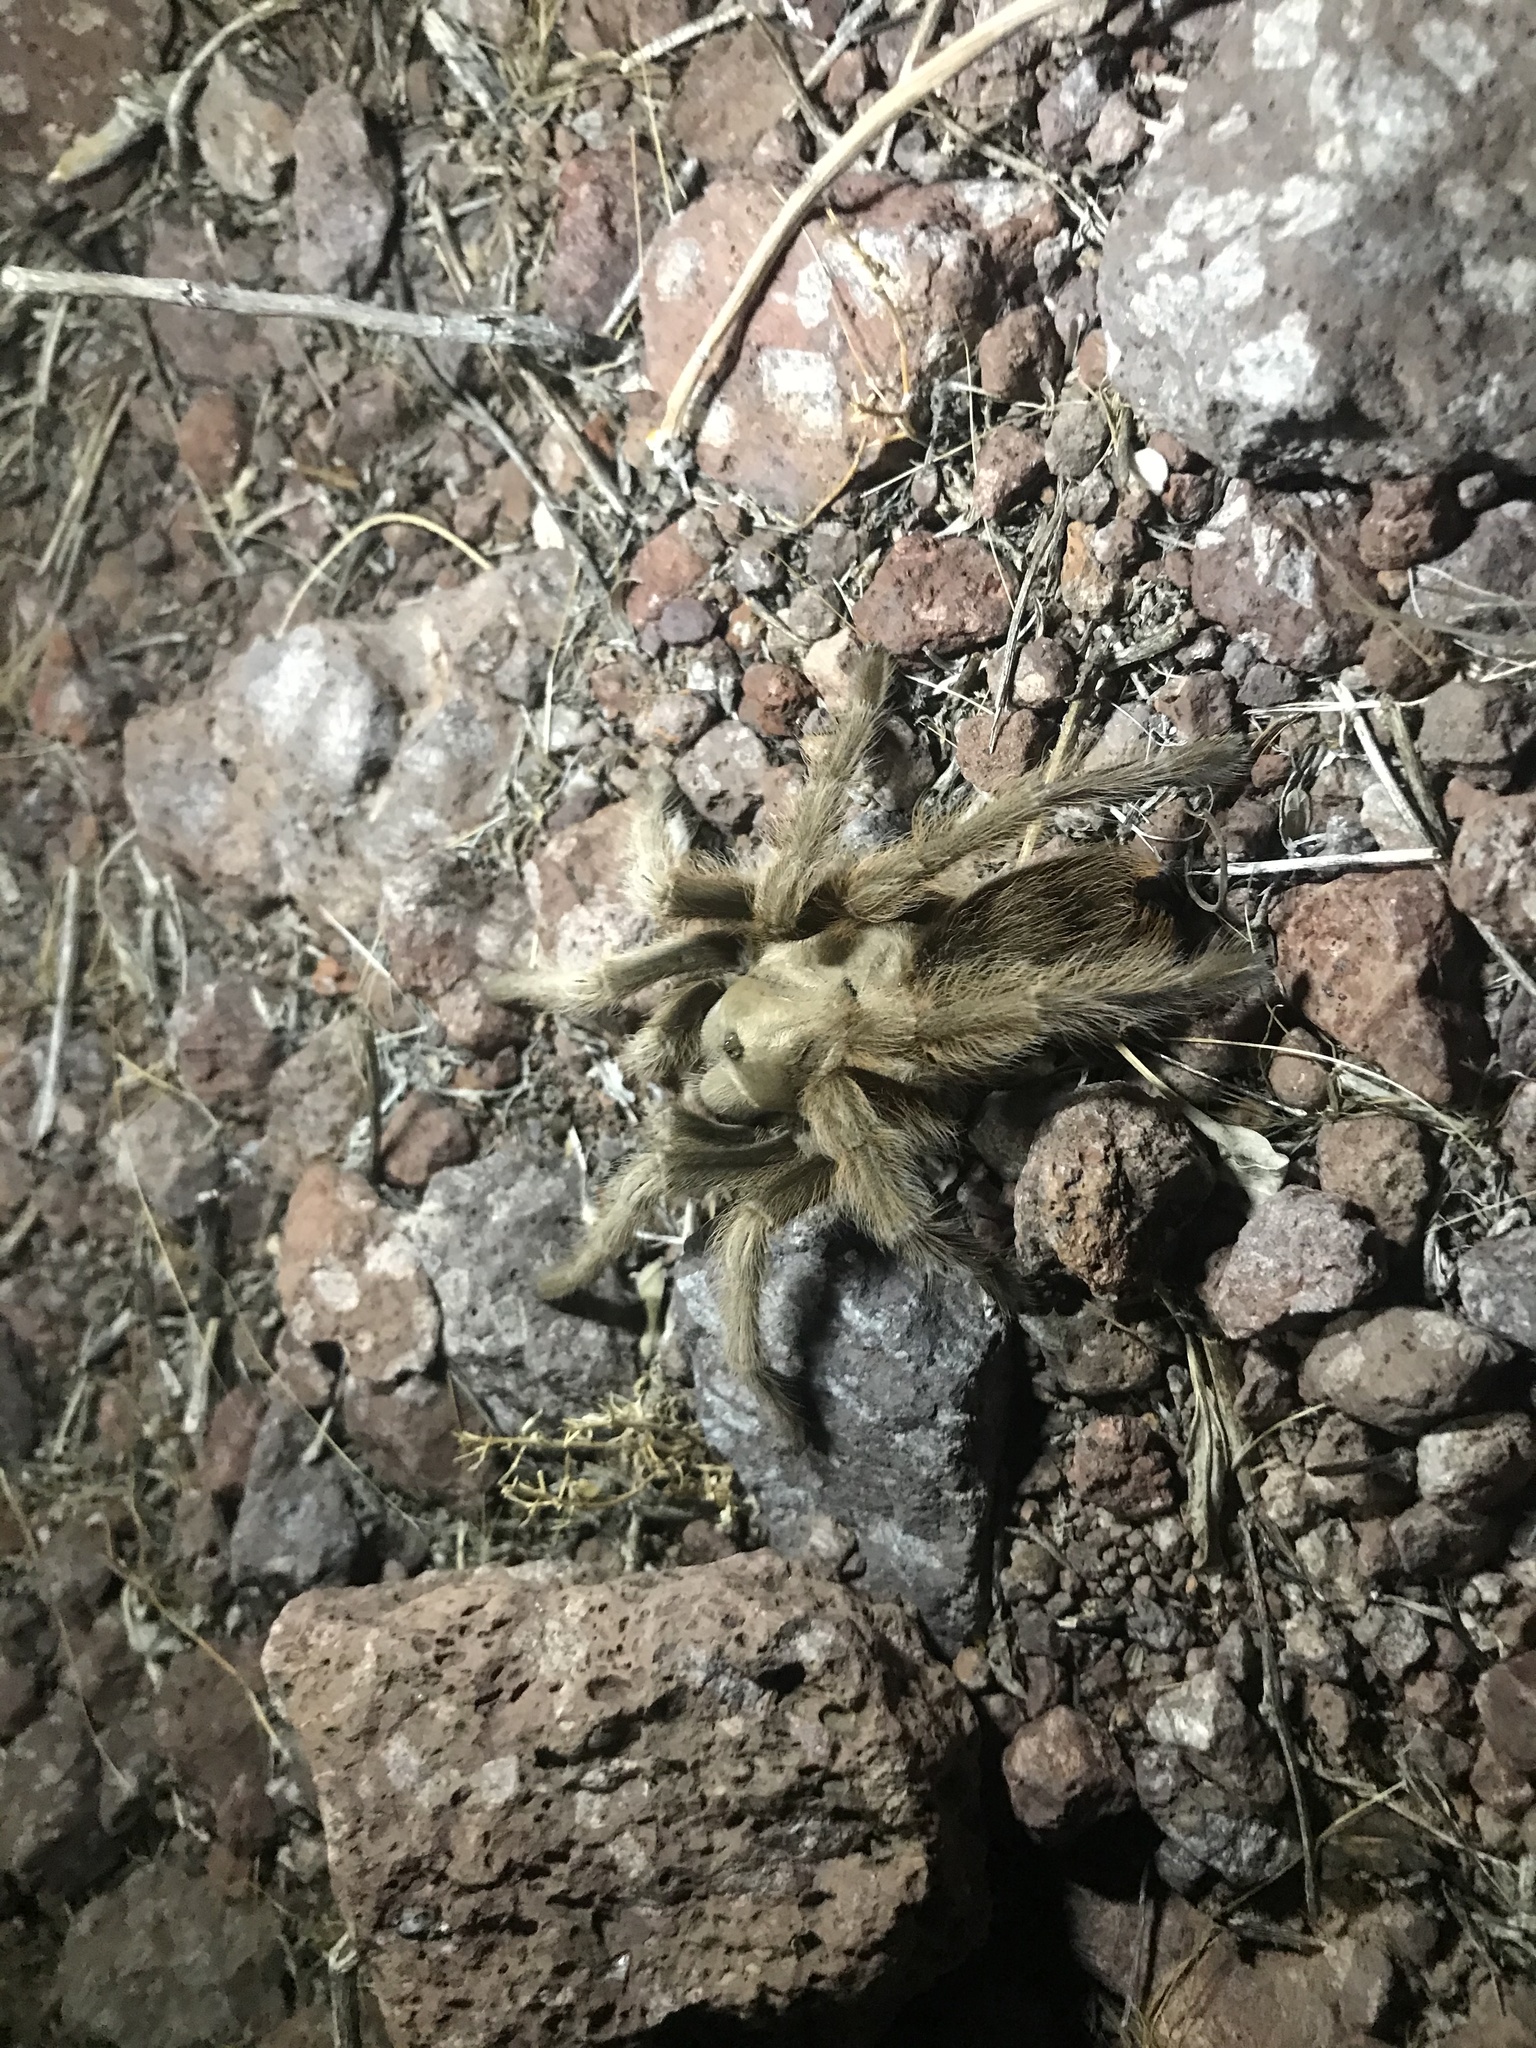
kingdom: Animalia
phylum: Arthropoda
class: Arachnida
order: Araneae
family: Theraphosidae
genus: Aphonopelma
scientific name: Aphonopelma chalcodes
